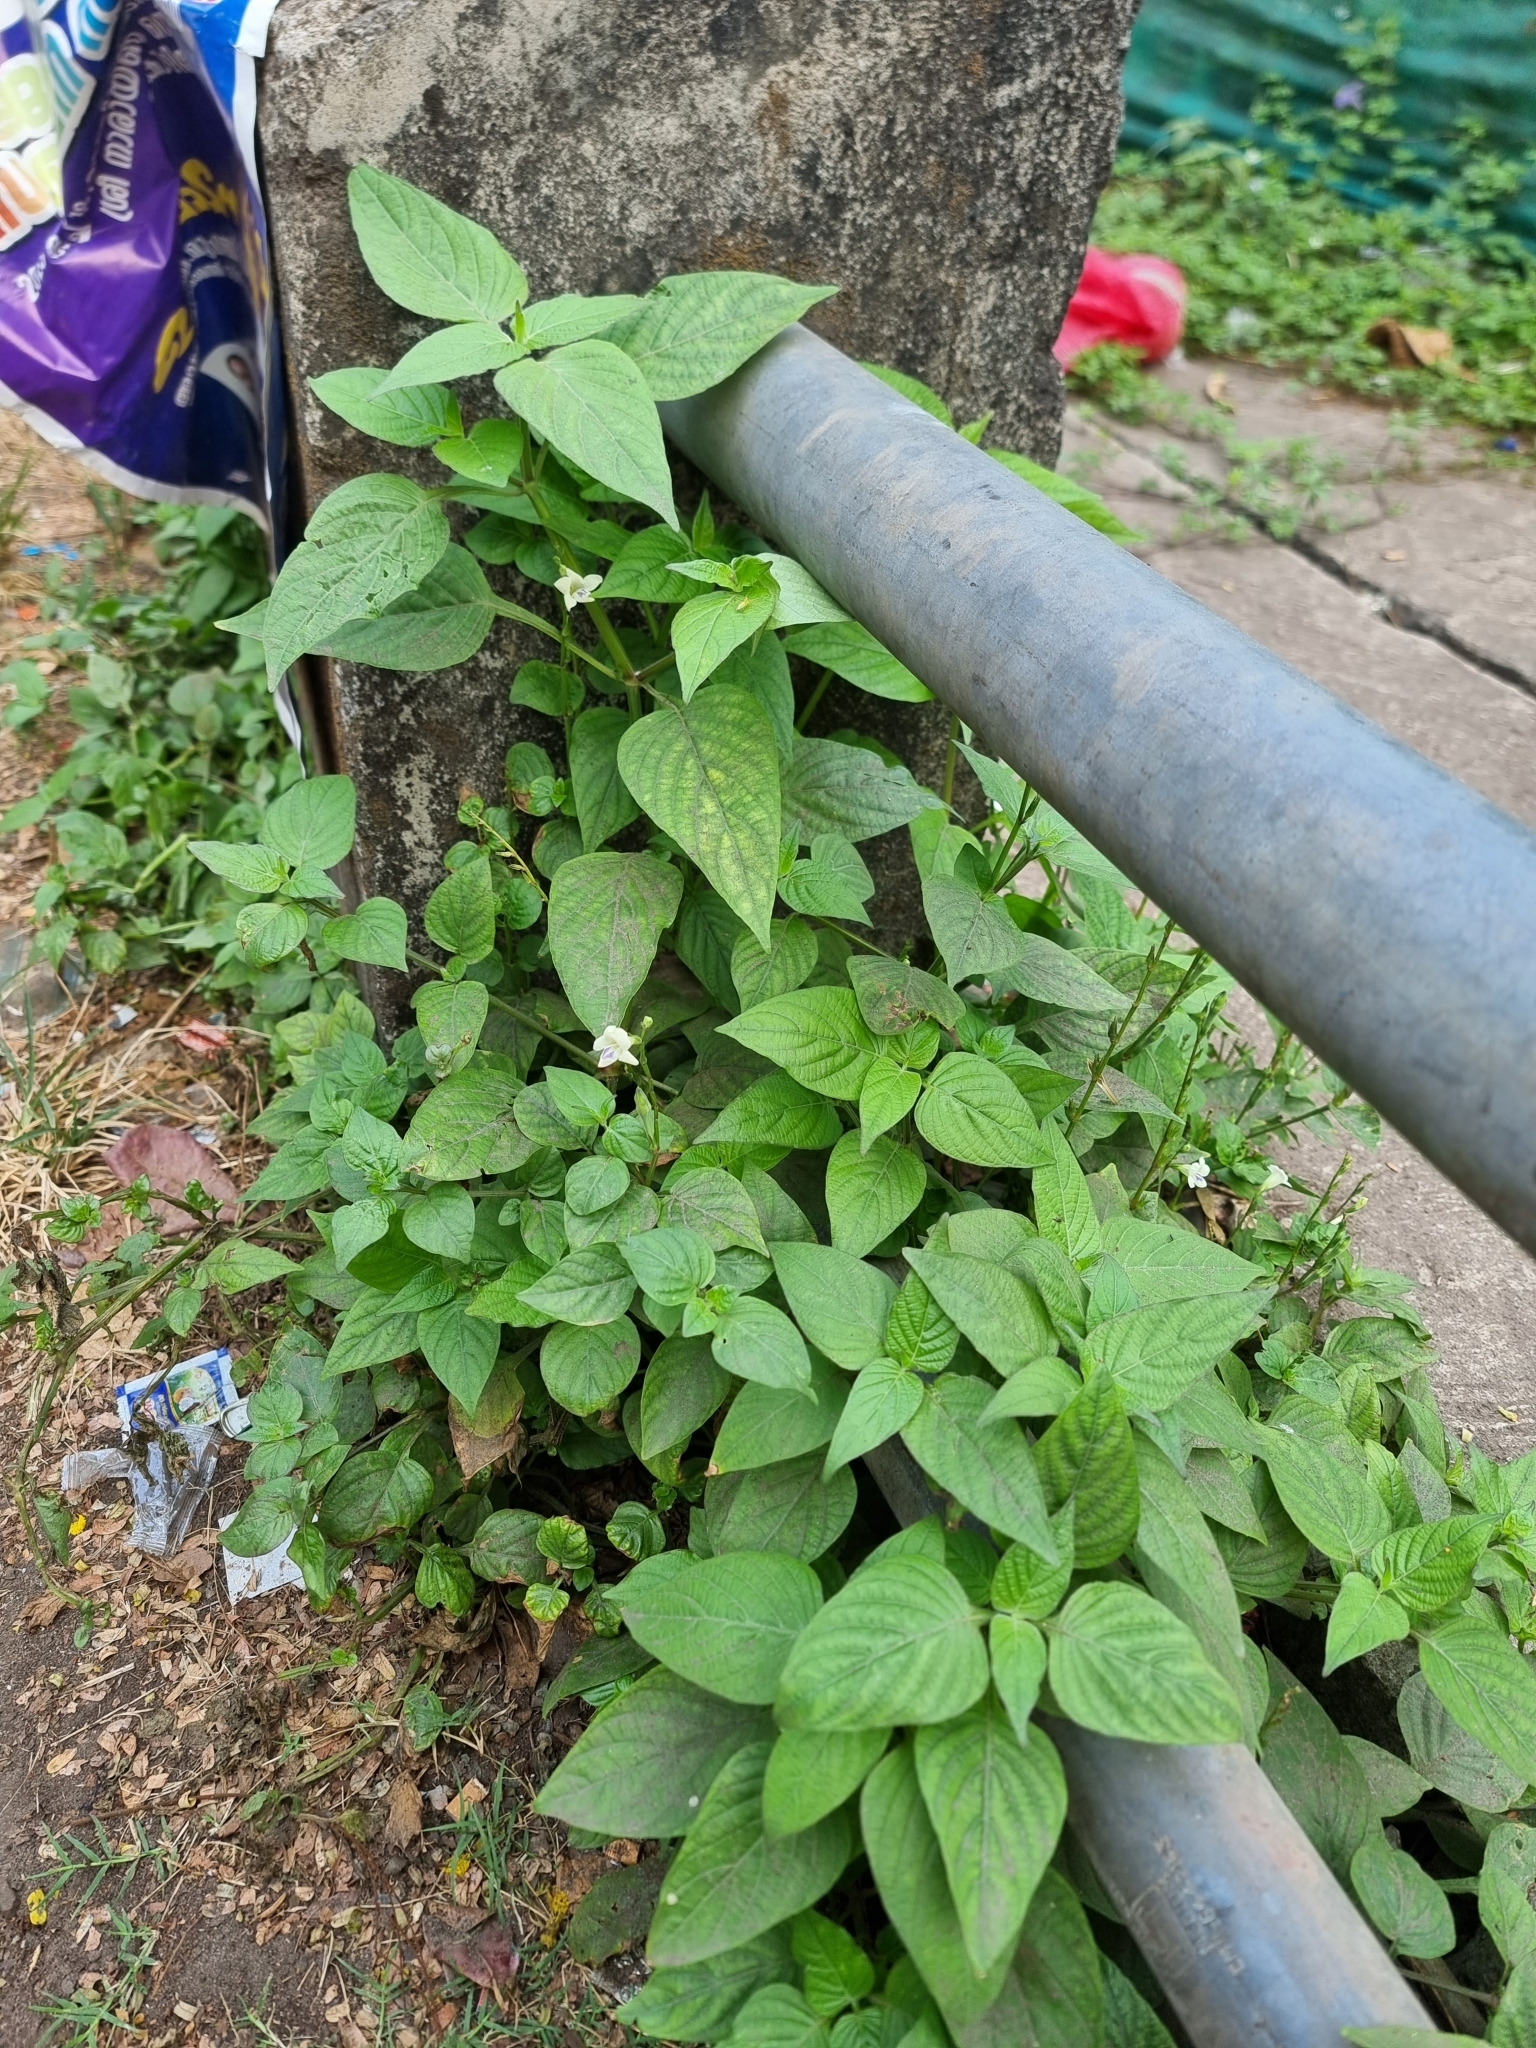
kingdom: Plantae
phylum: Tracheophyta
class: Magnoliopsida
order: Lamiales
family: Acanthaceae
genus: Asystasia
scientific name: Asystasia intrusa
